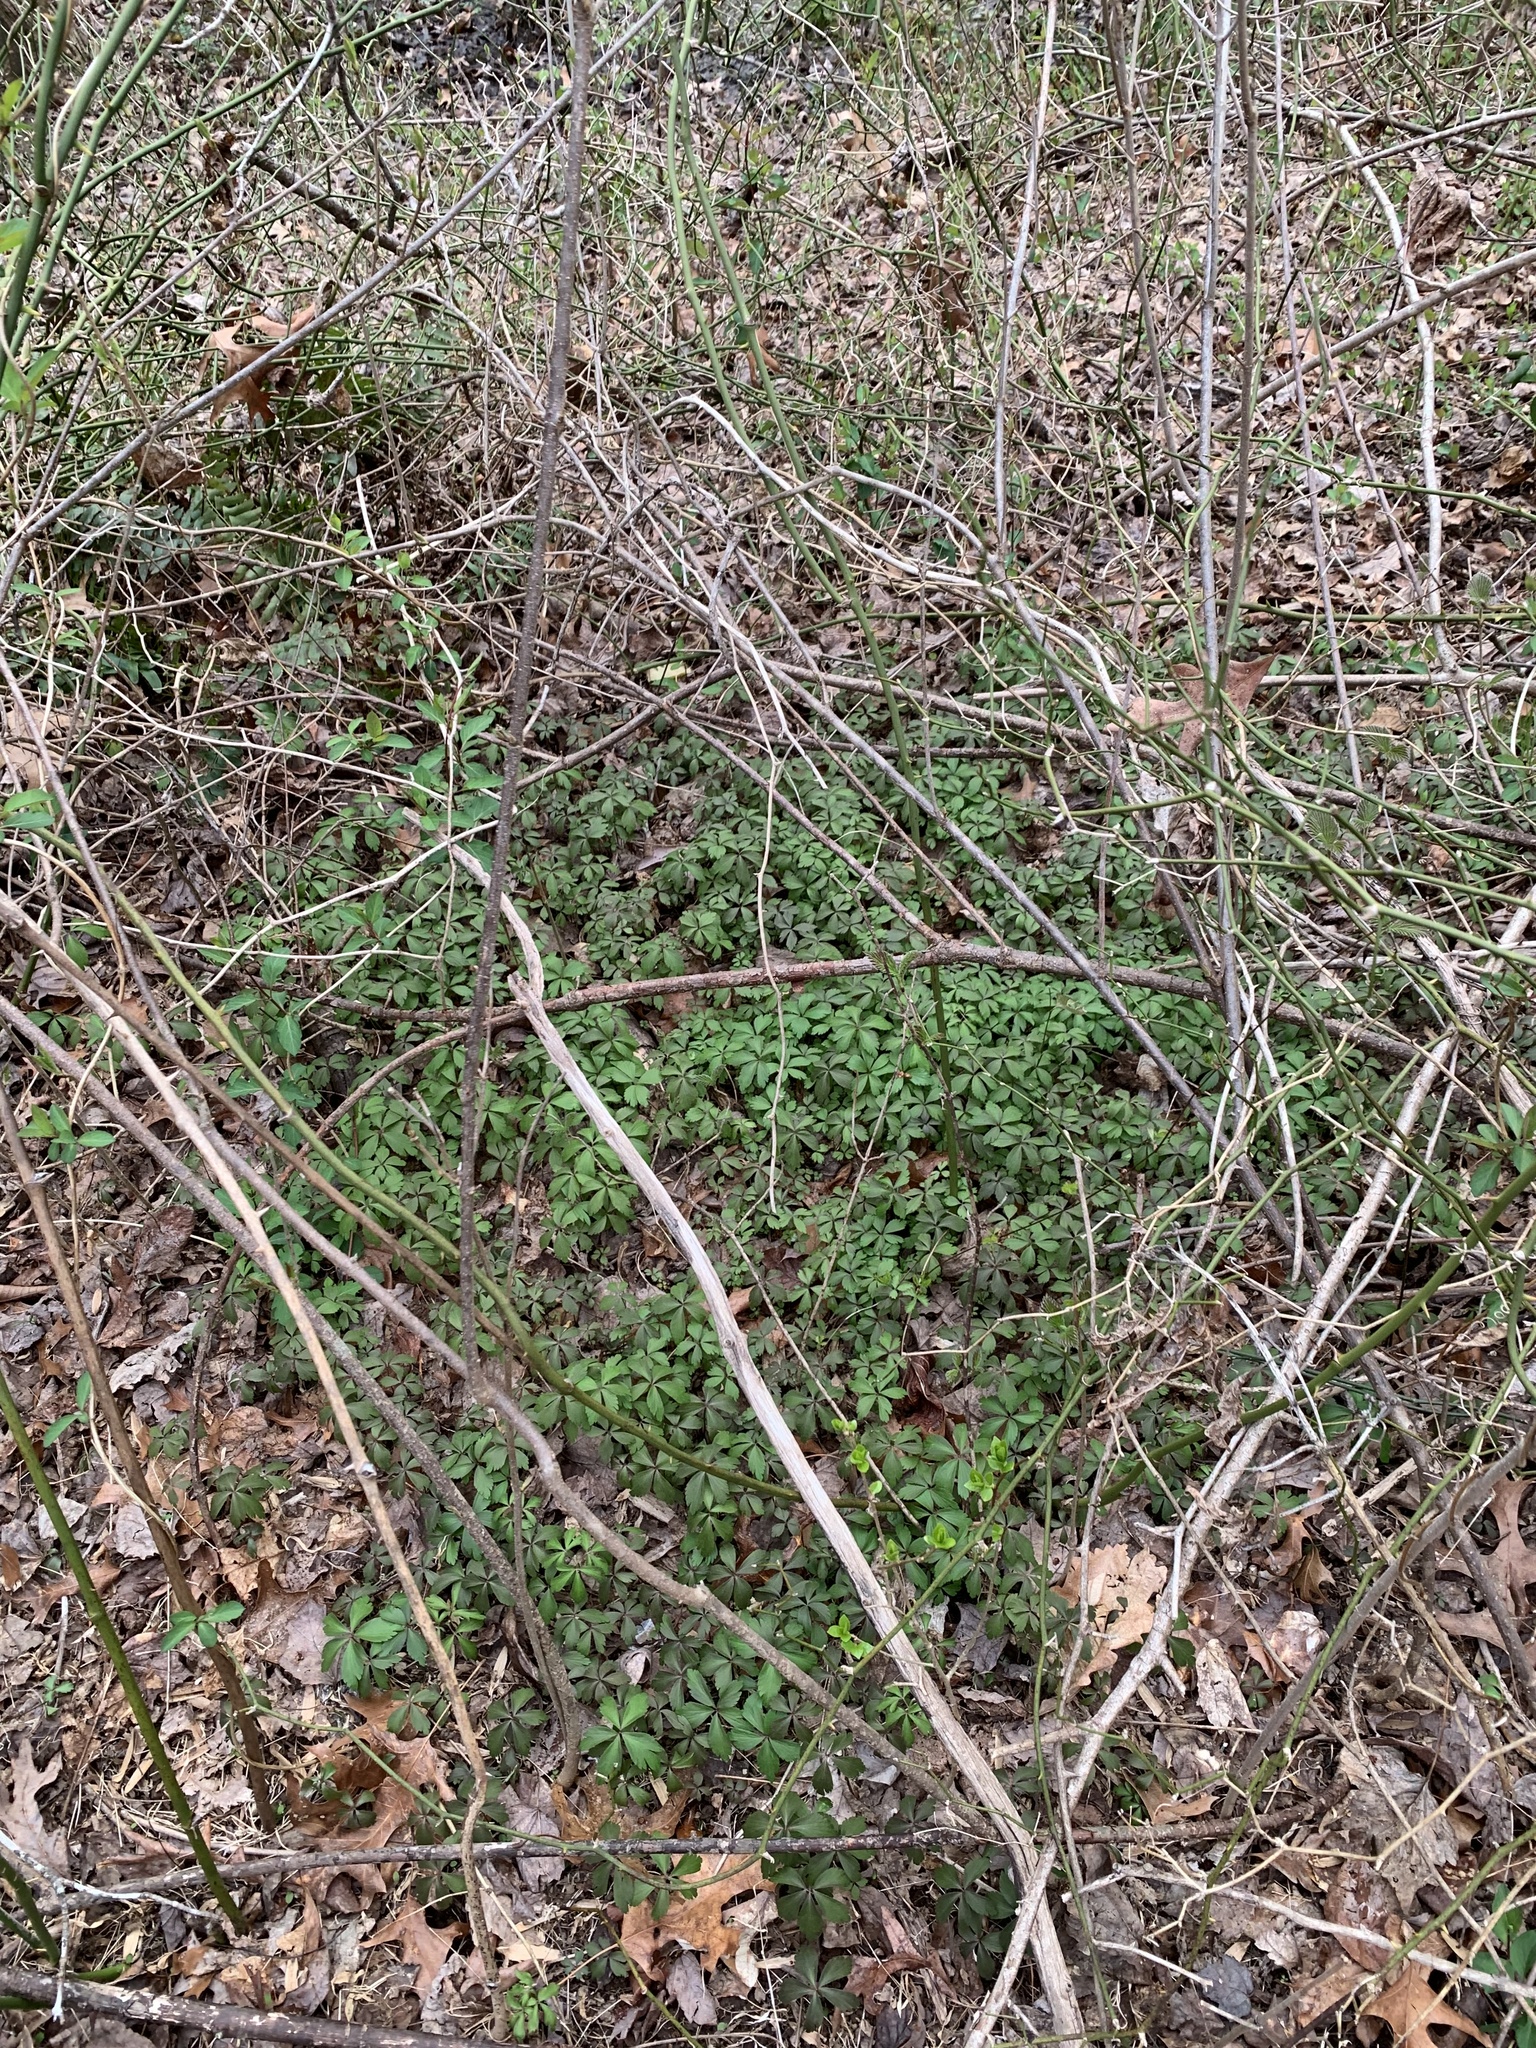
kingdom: Plantae
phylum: Tracheophyta
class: Magnoliopsida
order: Ranunculales
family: Ranunculaceae
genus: Anemone
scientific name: Anemone quinquefolia
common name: Wood anemone
